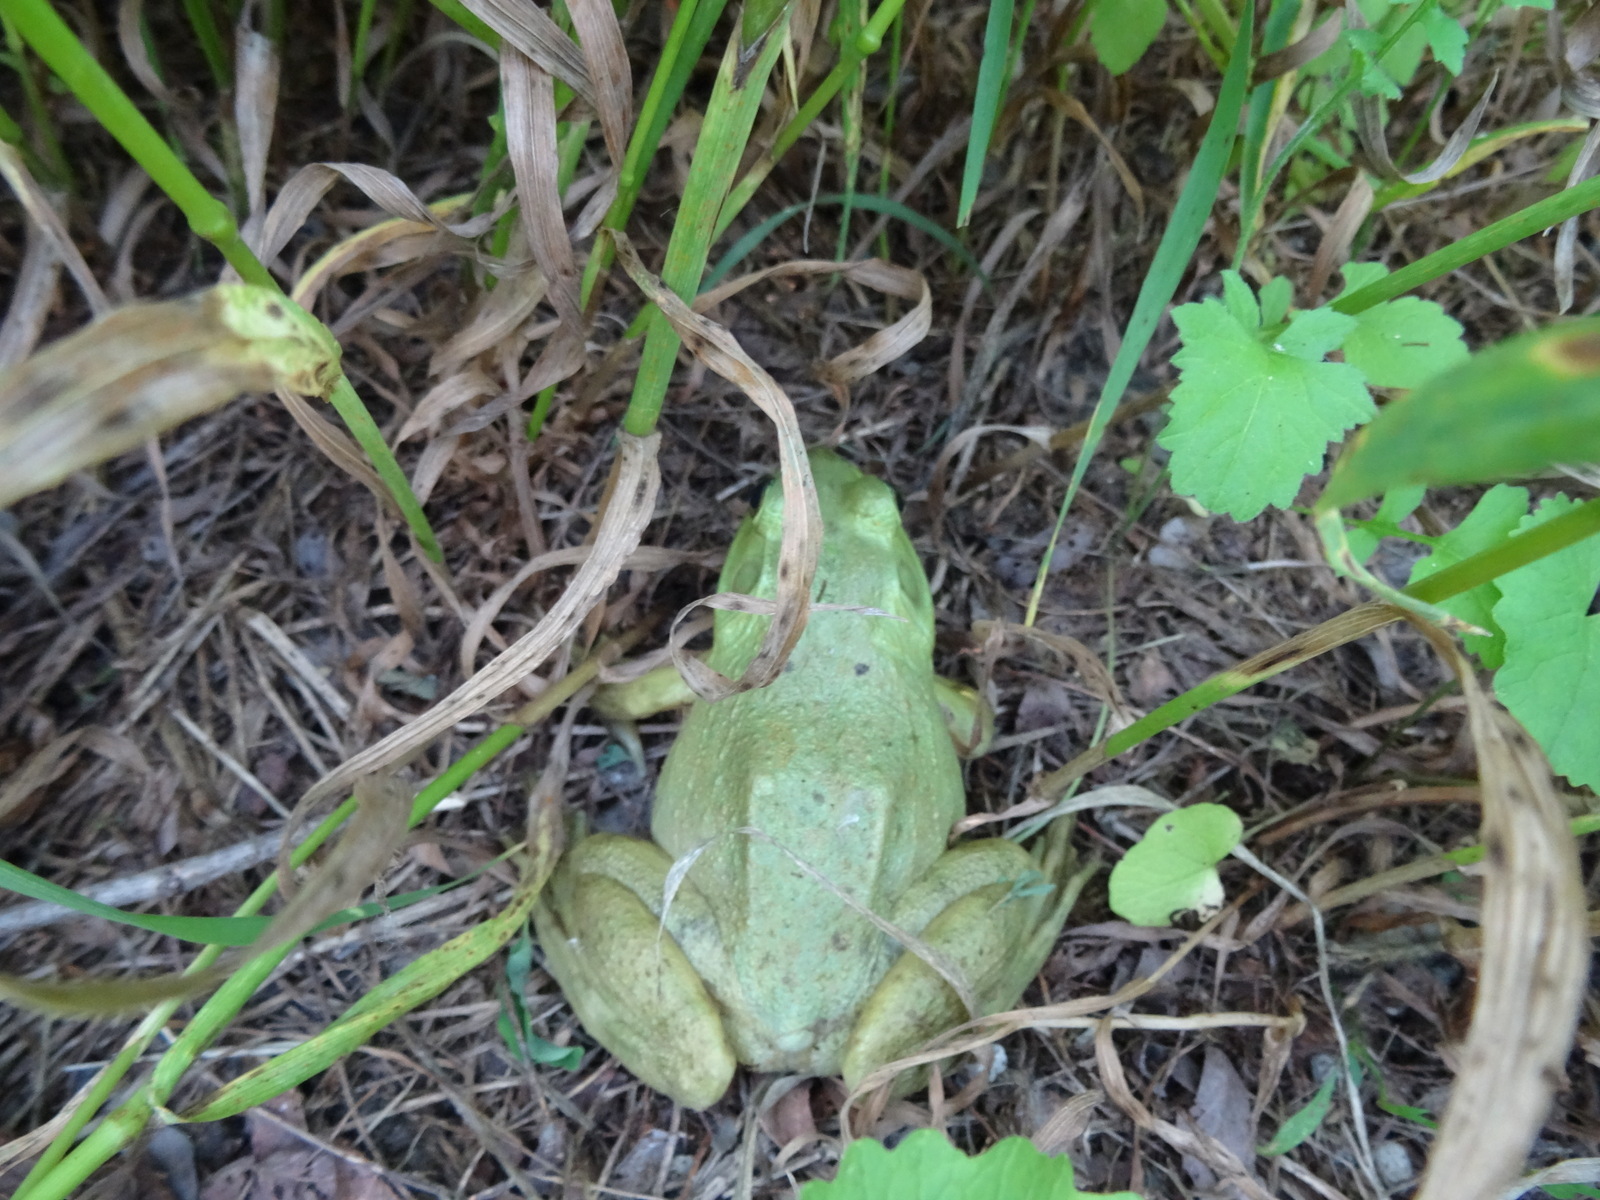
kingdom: Animalia
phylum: Chordata
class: Amphibia
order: Anura
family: Ranidae
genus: Lithobates
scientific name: Lithobates catesbeianus
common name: American bullfrog
